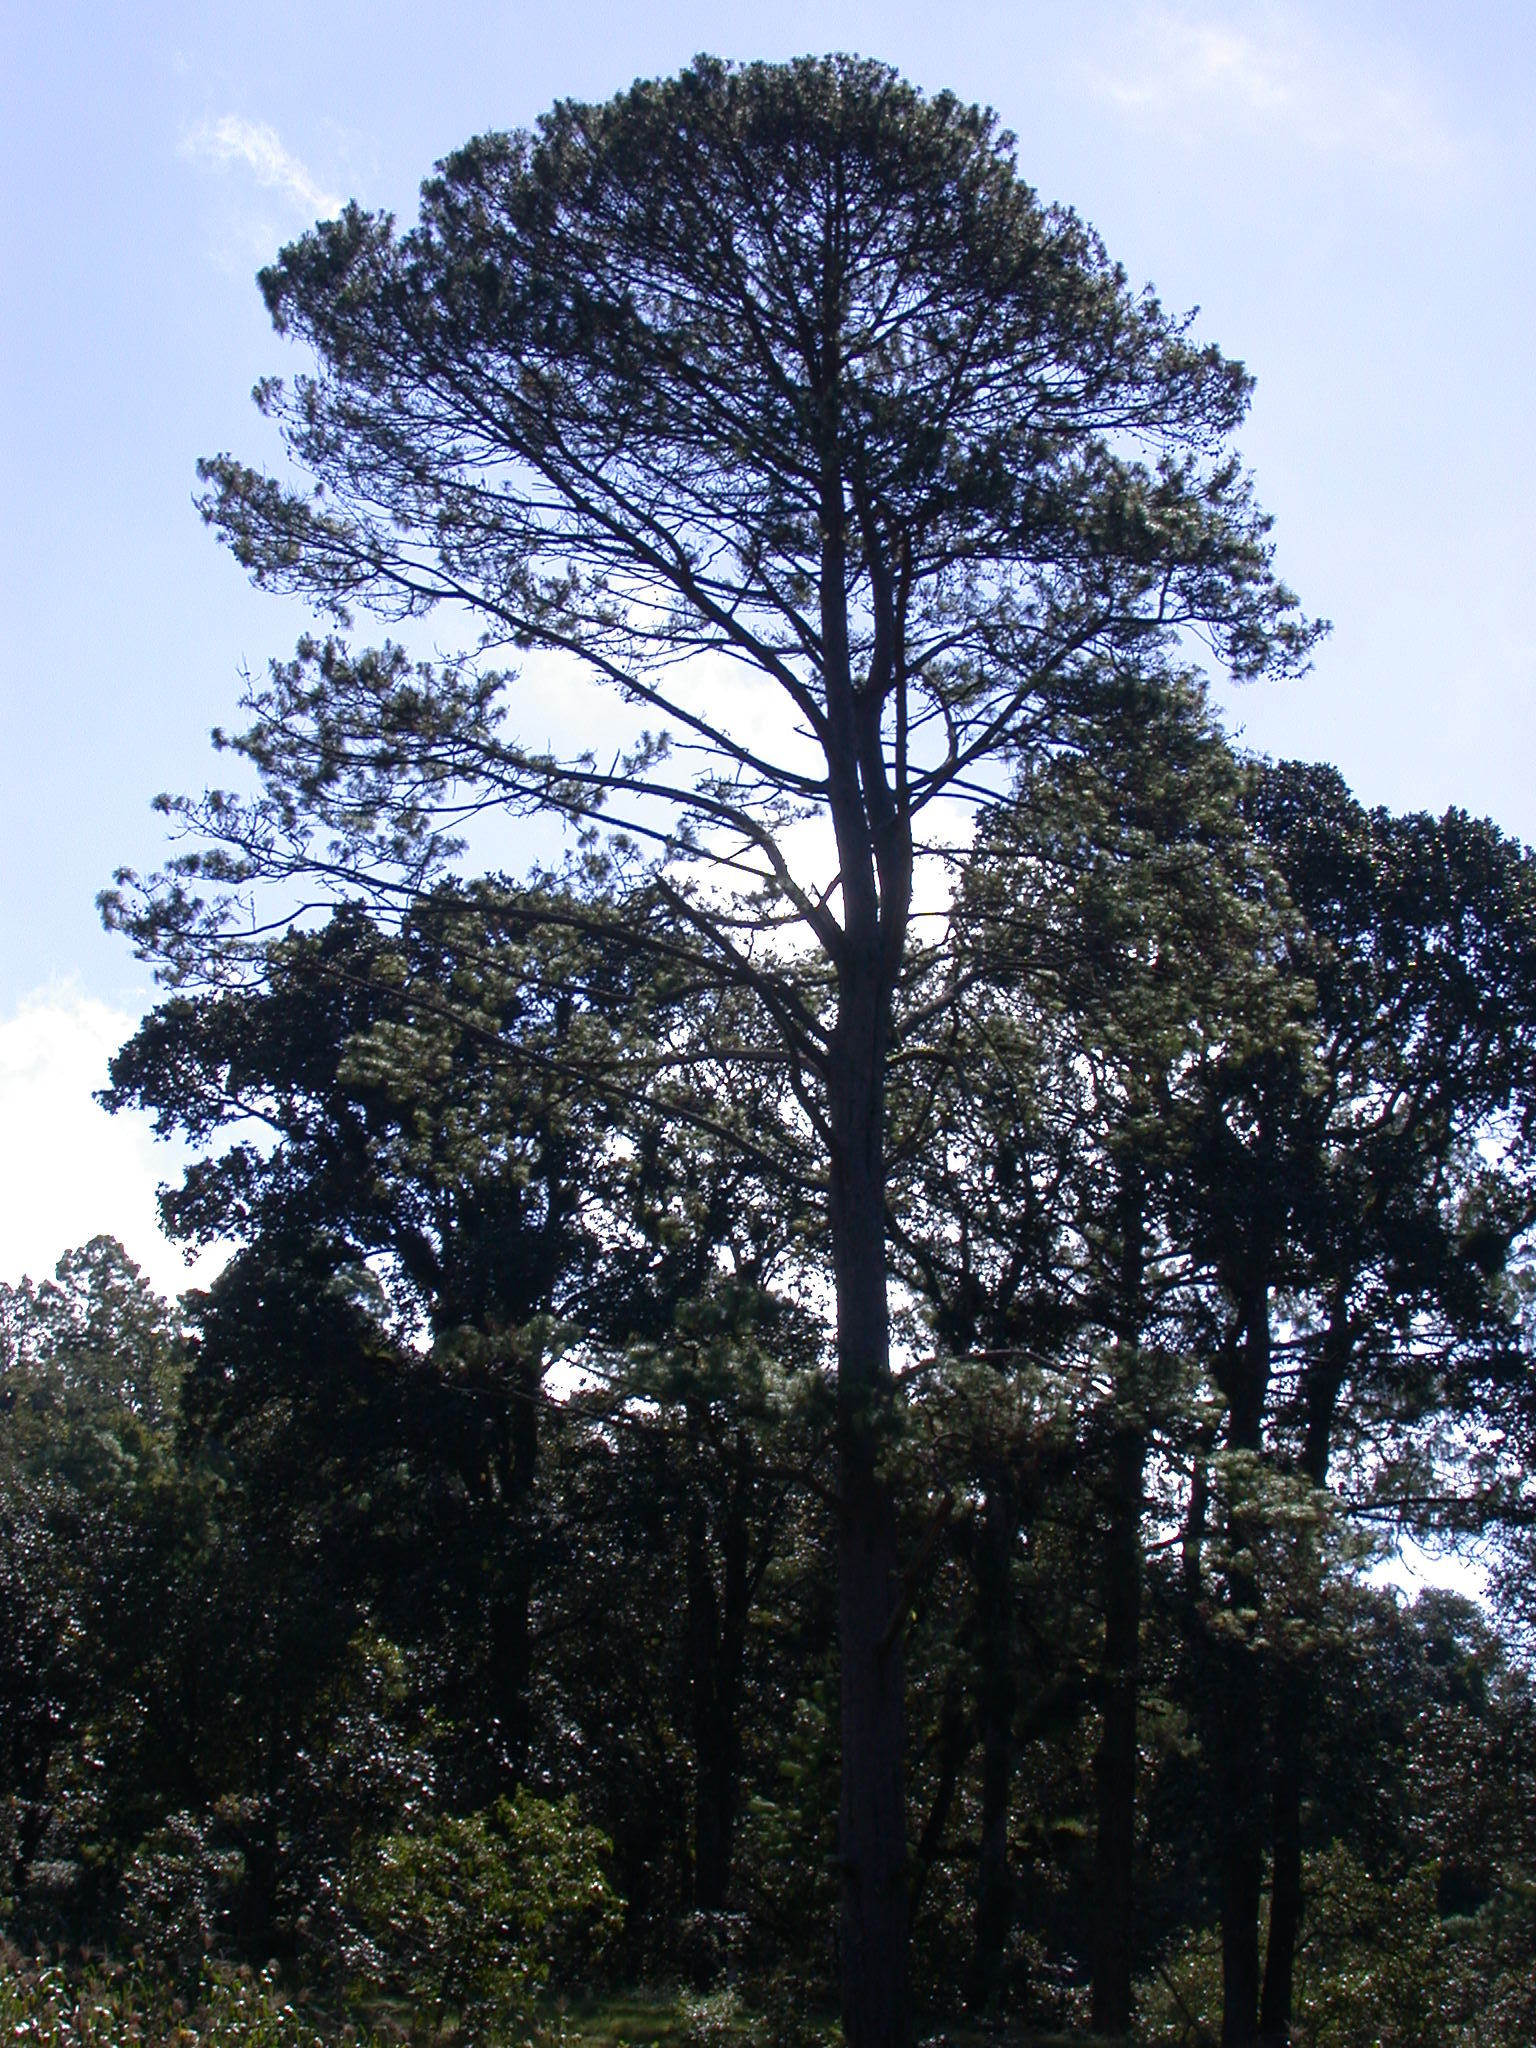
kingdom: Plantae
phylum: Tracheophyta
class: Pinopsida
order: Pinales
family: Pinaceae
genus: Pinus
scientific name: Pinus tecunumanii
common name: Schwerdtfeger's pine
